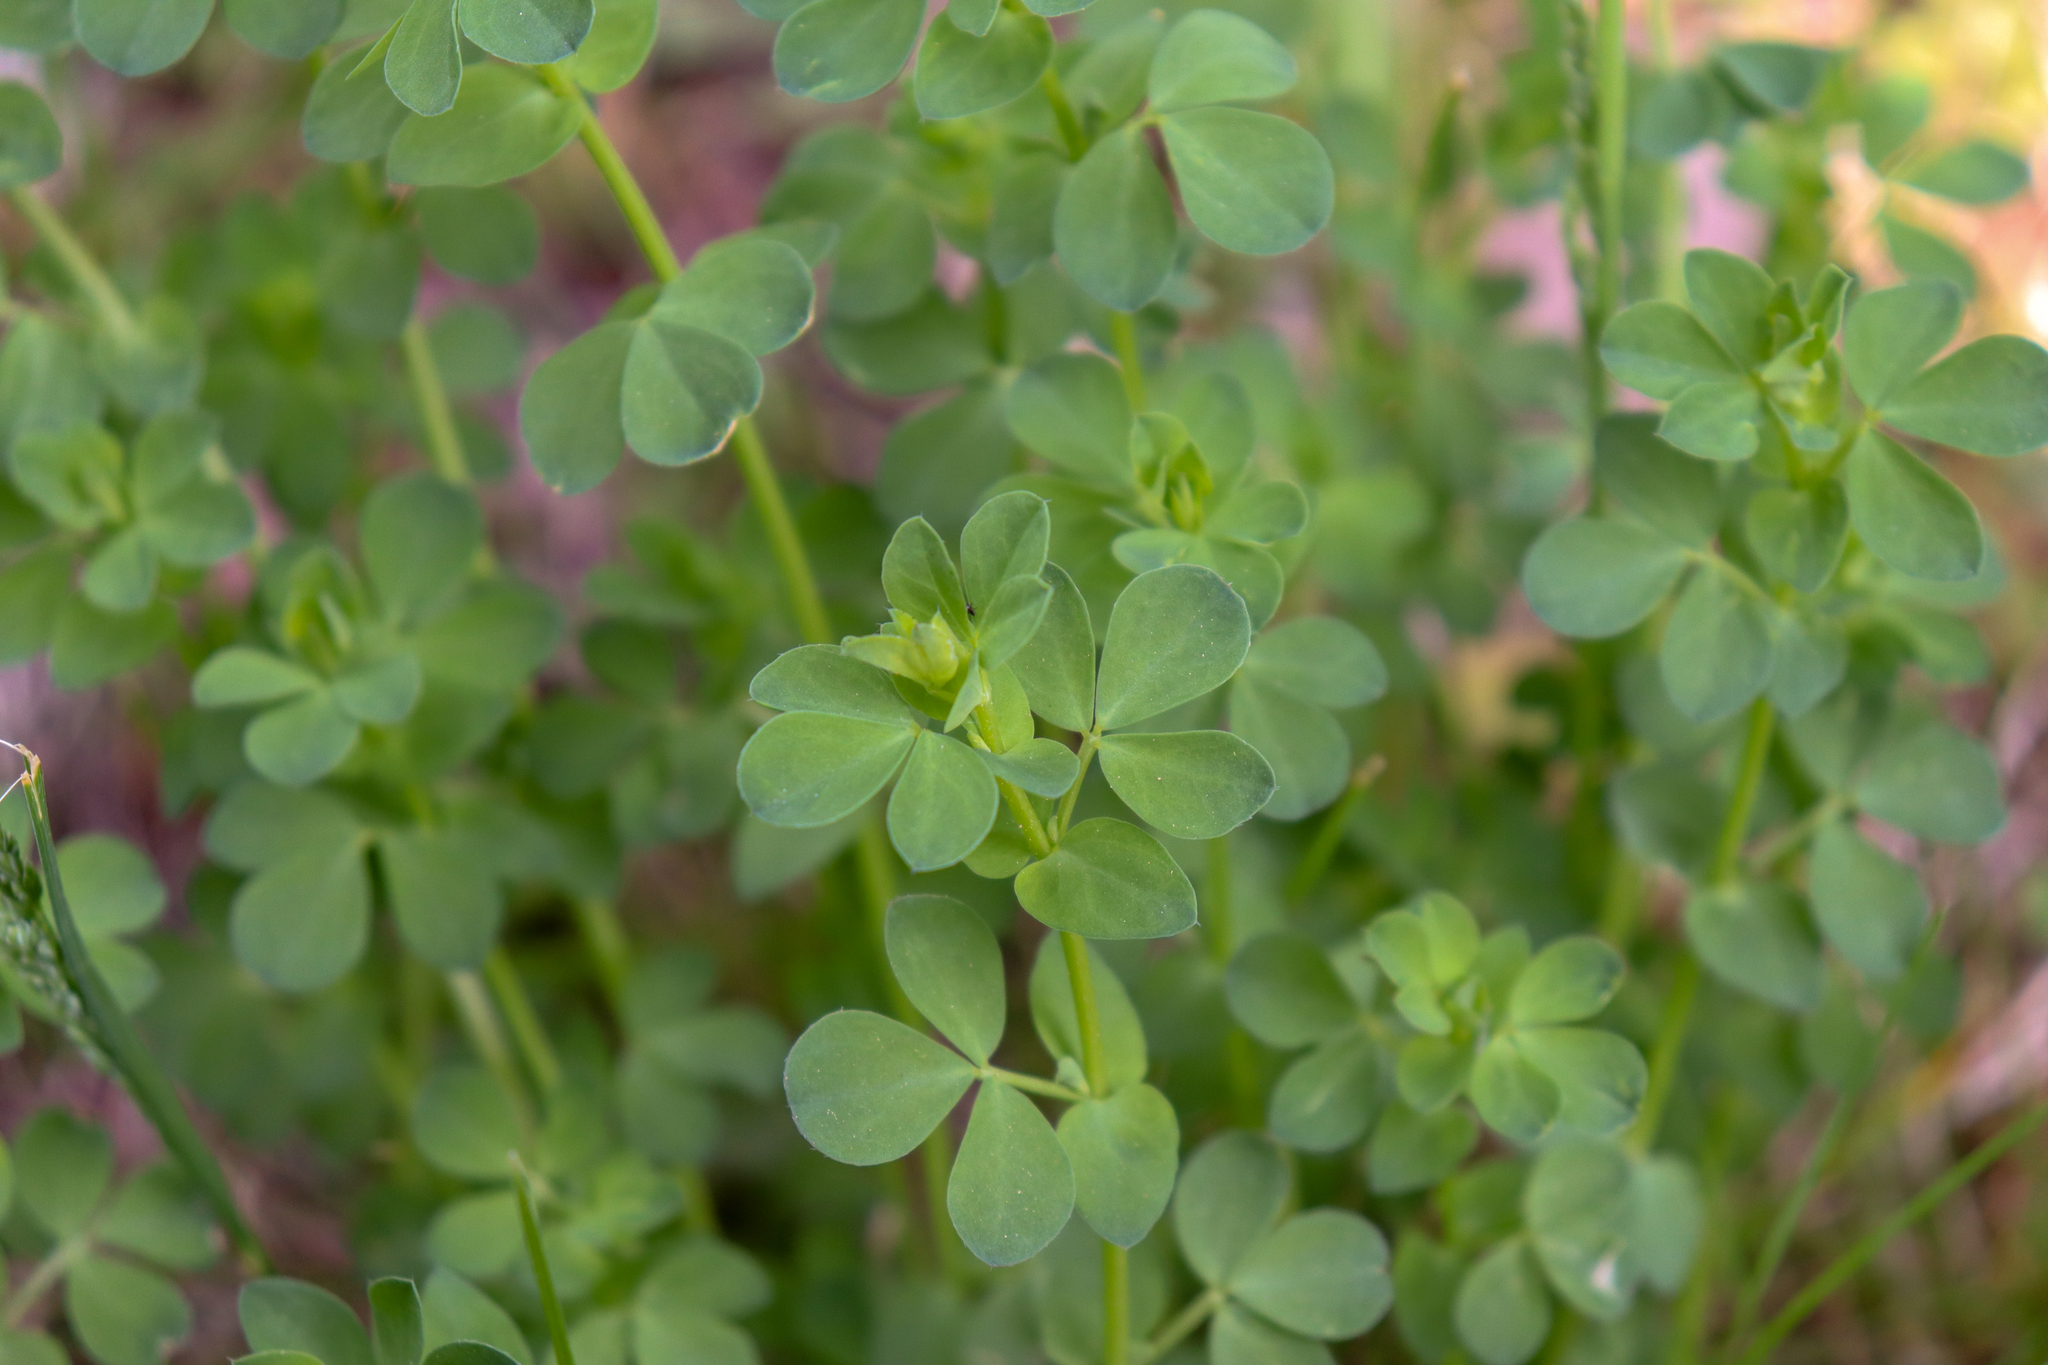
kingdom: Plantae
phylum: Tracheophyta
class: Magnoliopsida
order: Fabales
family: Fabaceae
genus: Lotus
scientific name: Lotus corniculatus
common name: Common bird's-foot-trefoil
